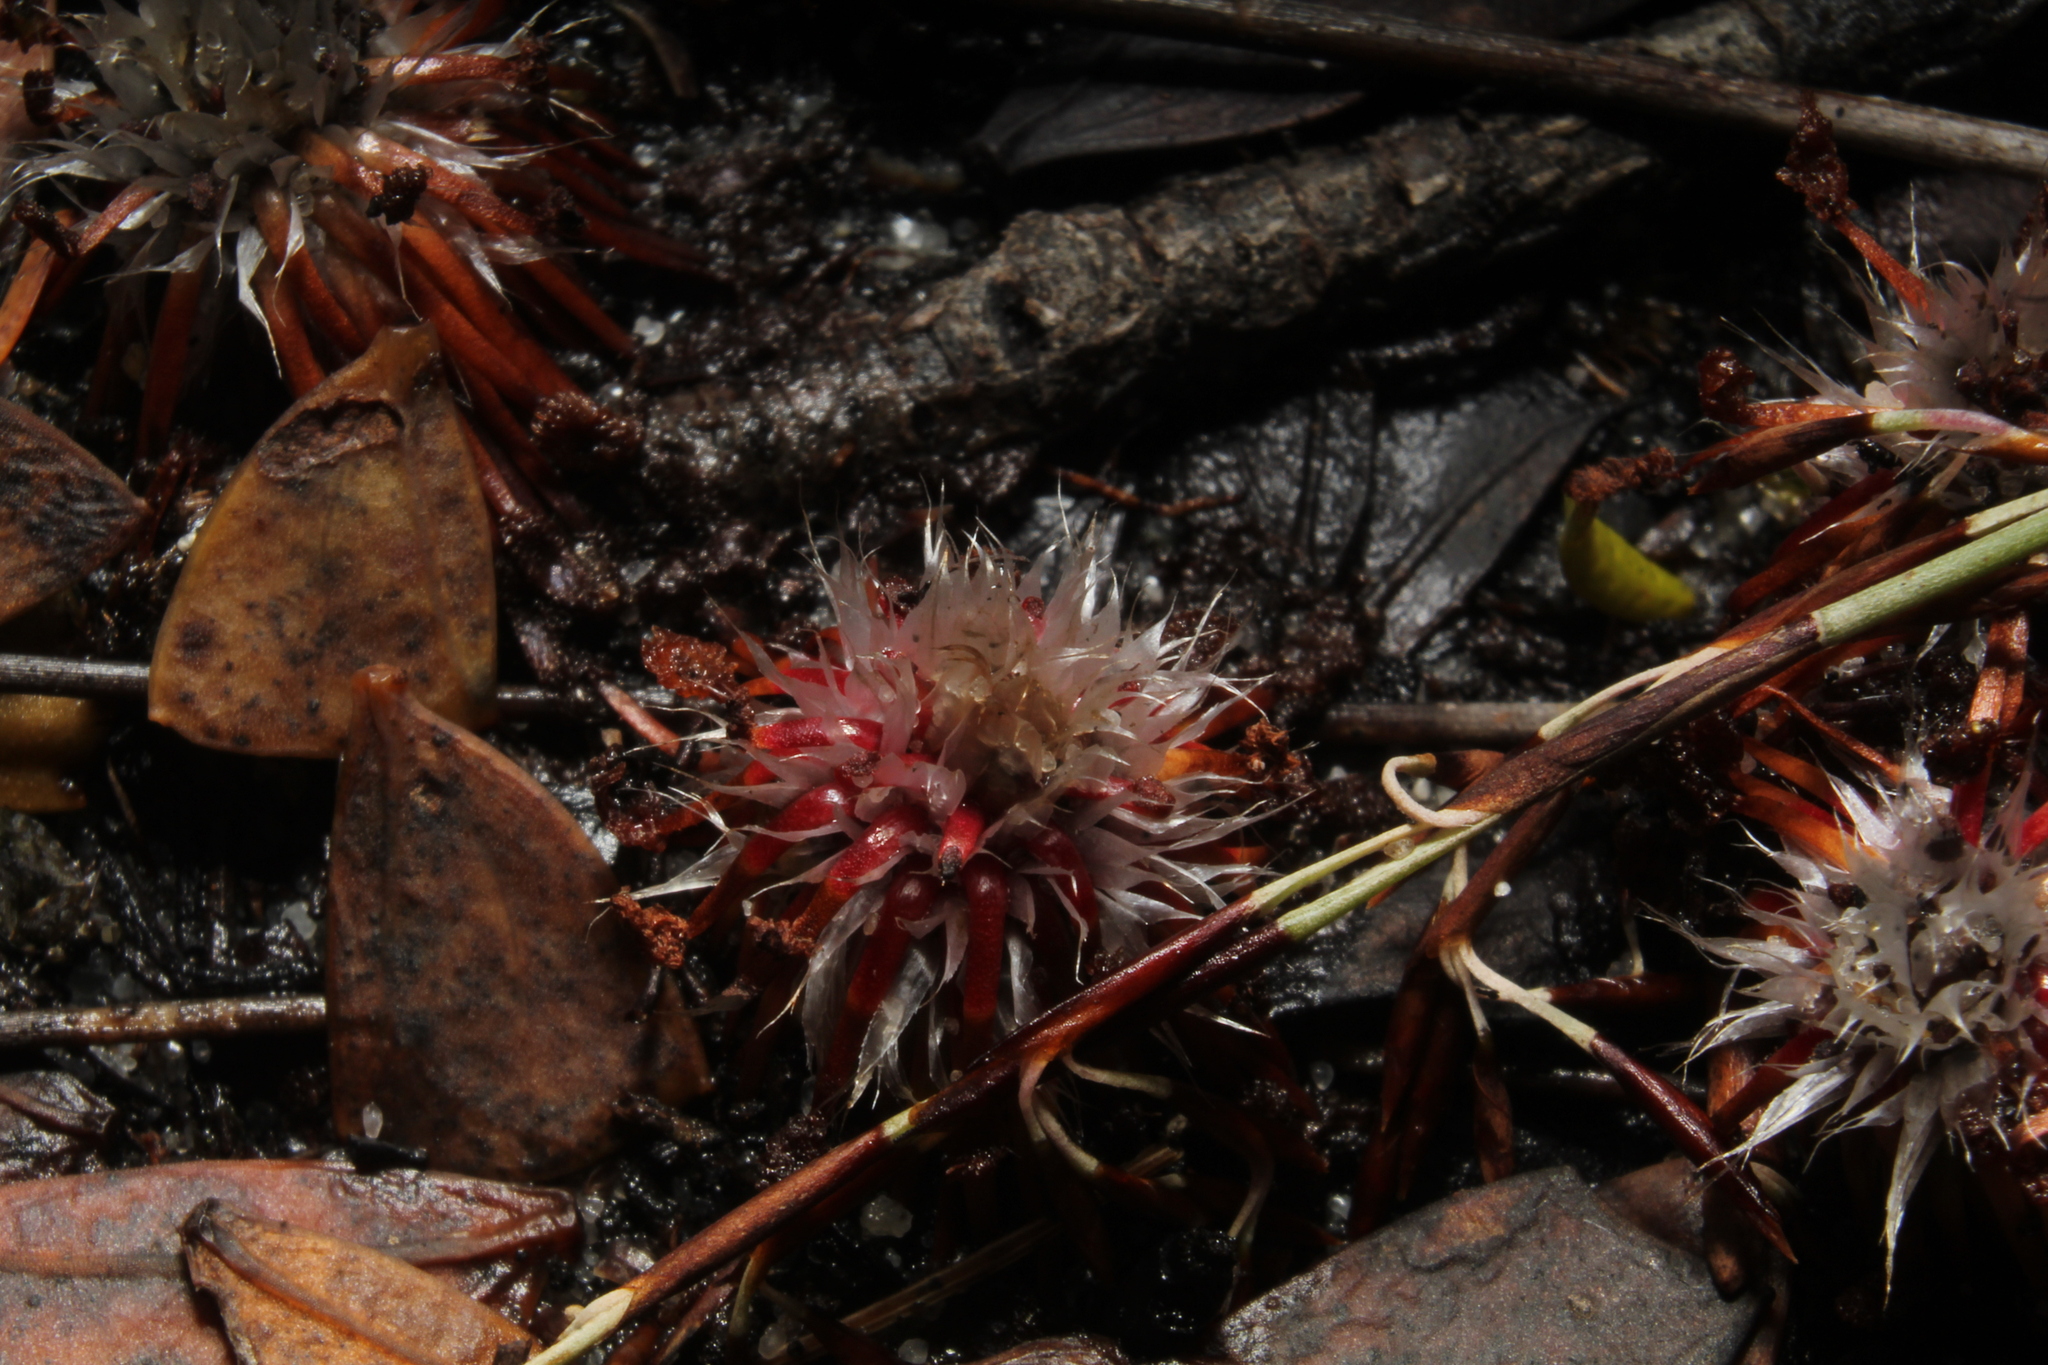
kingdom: Plantae
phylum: Tracheophyta
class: Magnoliopsida
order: Caryophyllales
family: Droseraceae
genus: Drosera
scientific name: Drosera paleacea
